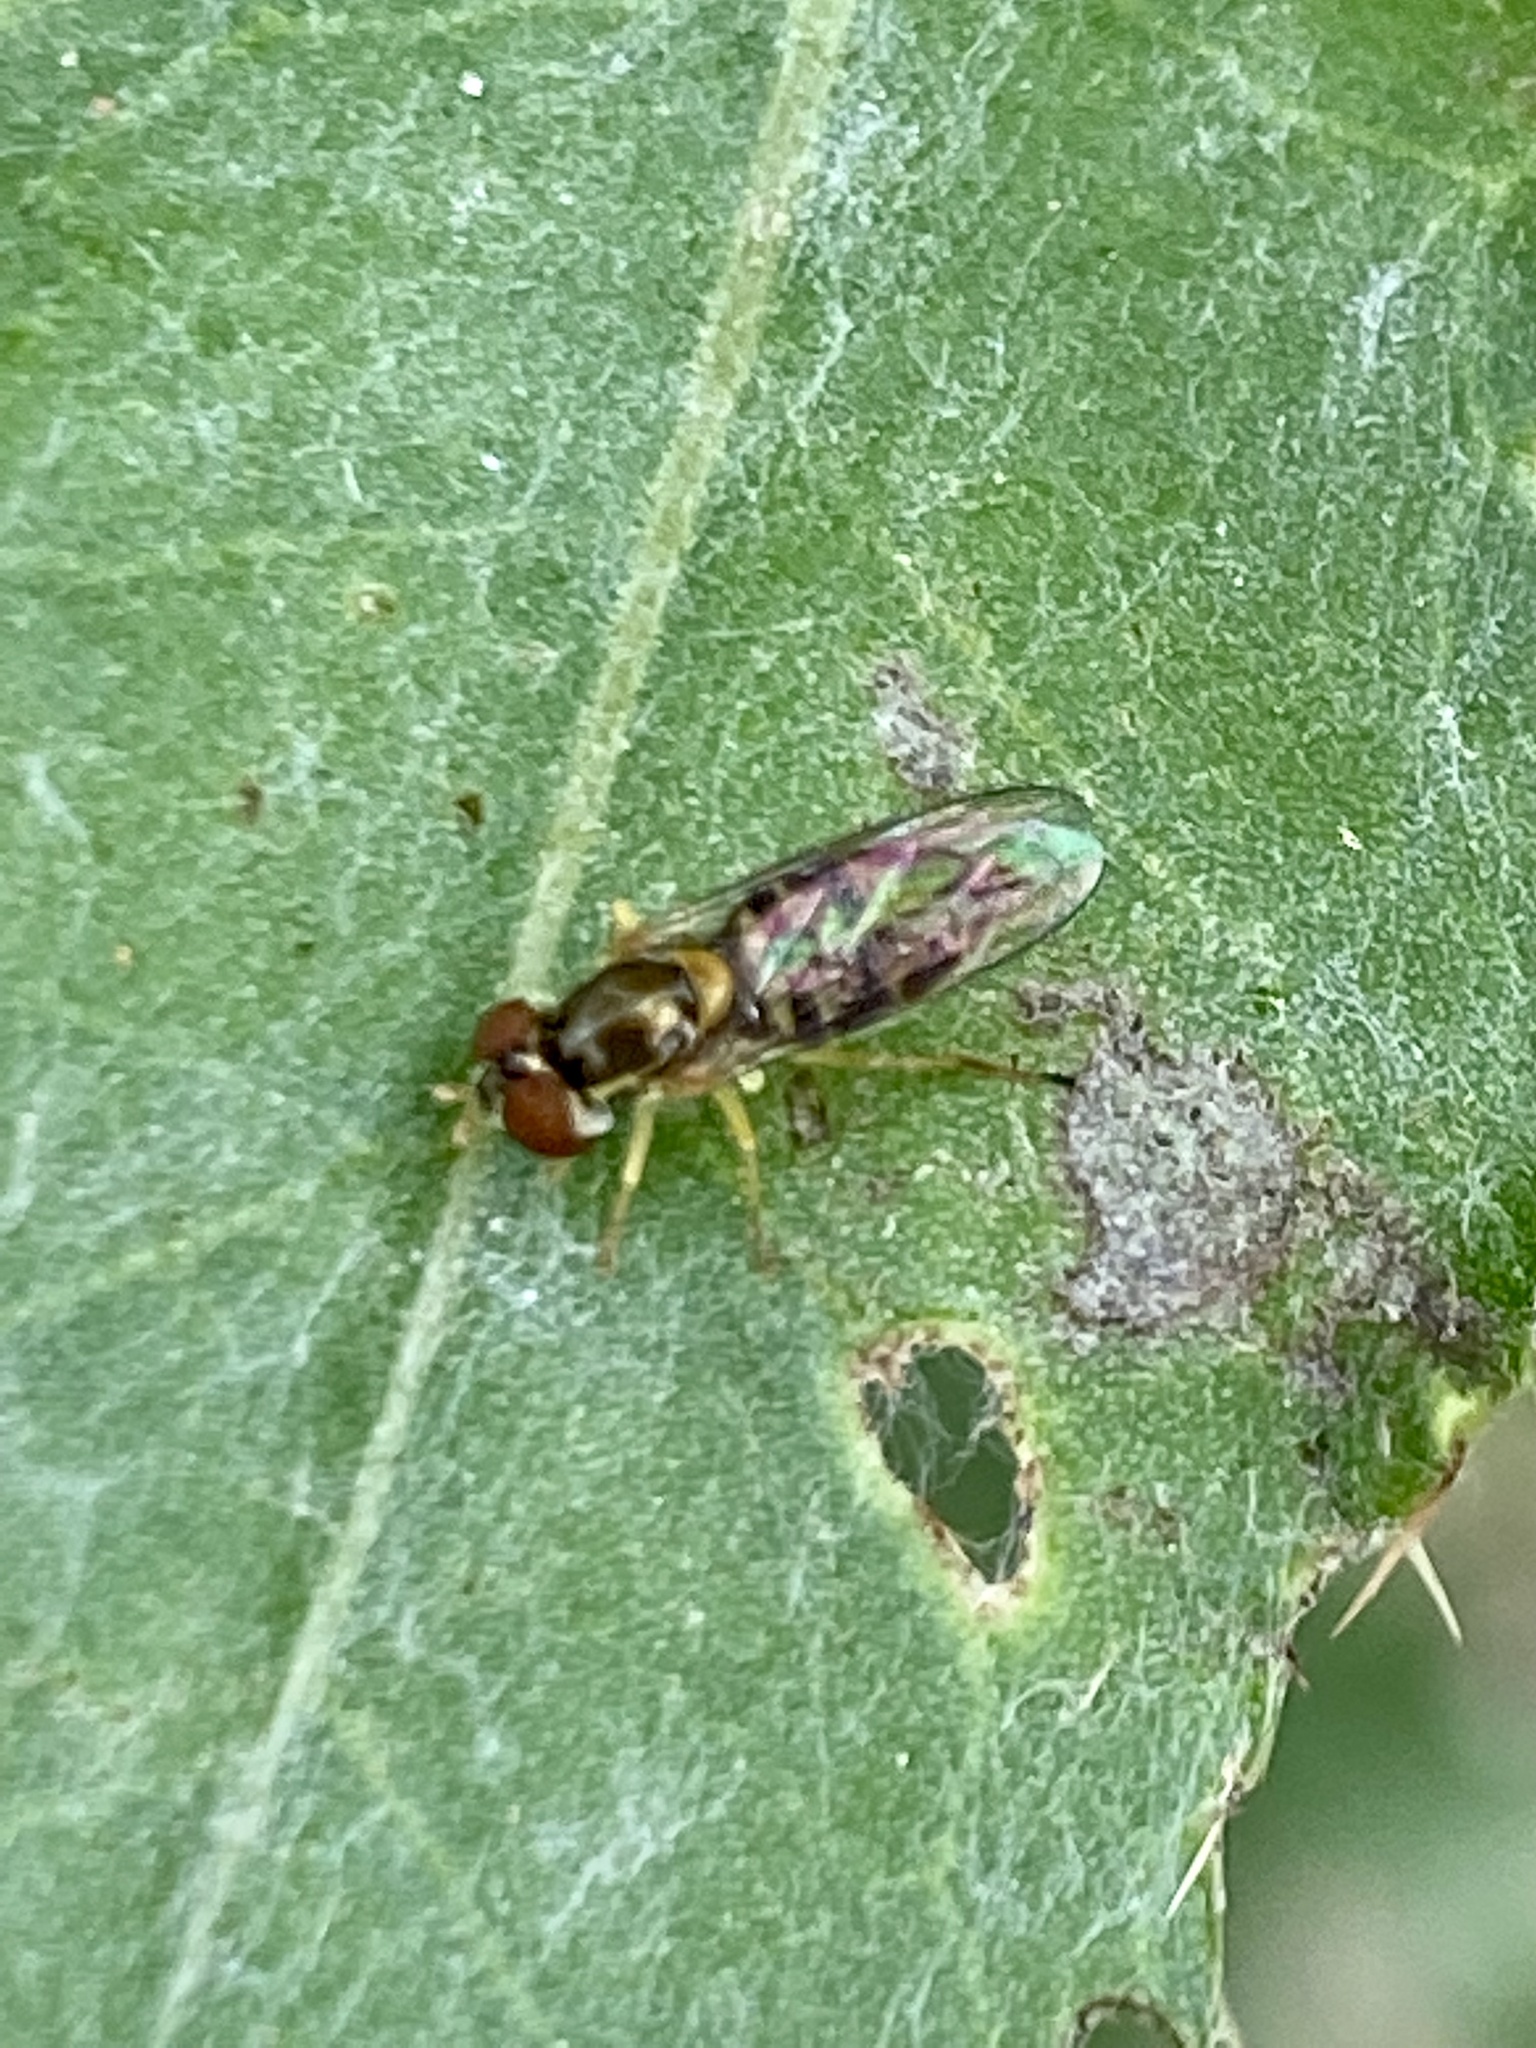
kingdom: Animalia
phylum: Arthropoda
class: Insecta
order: Diptera
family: Syrphidae
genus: Toxomerus
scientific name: Toxomerus marginatus
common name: Syrphid fly
